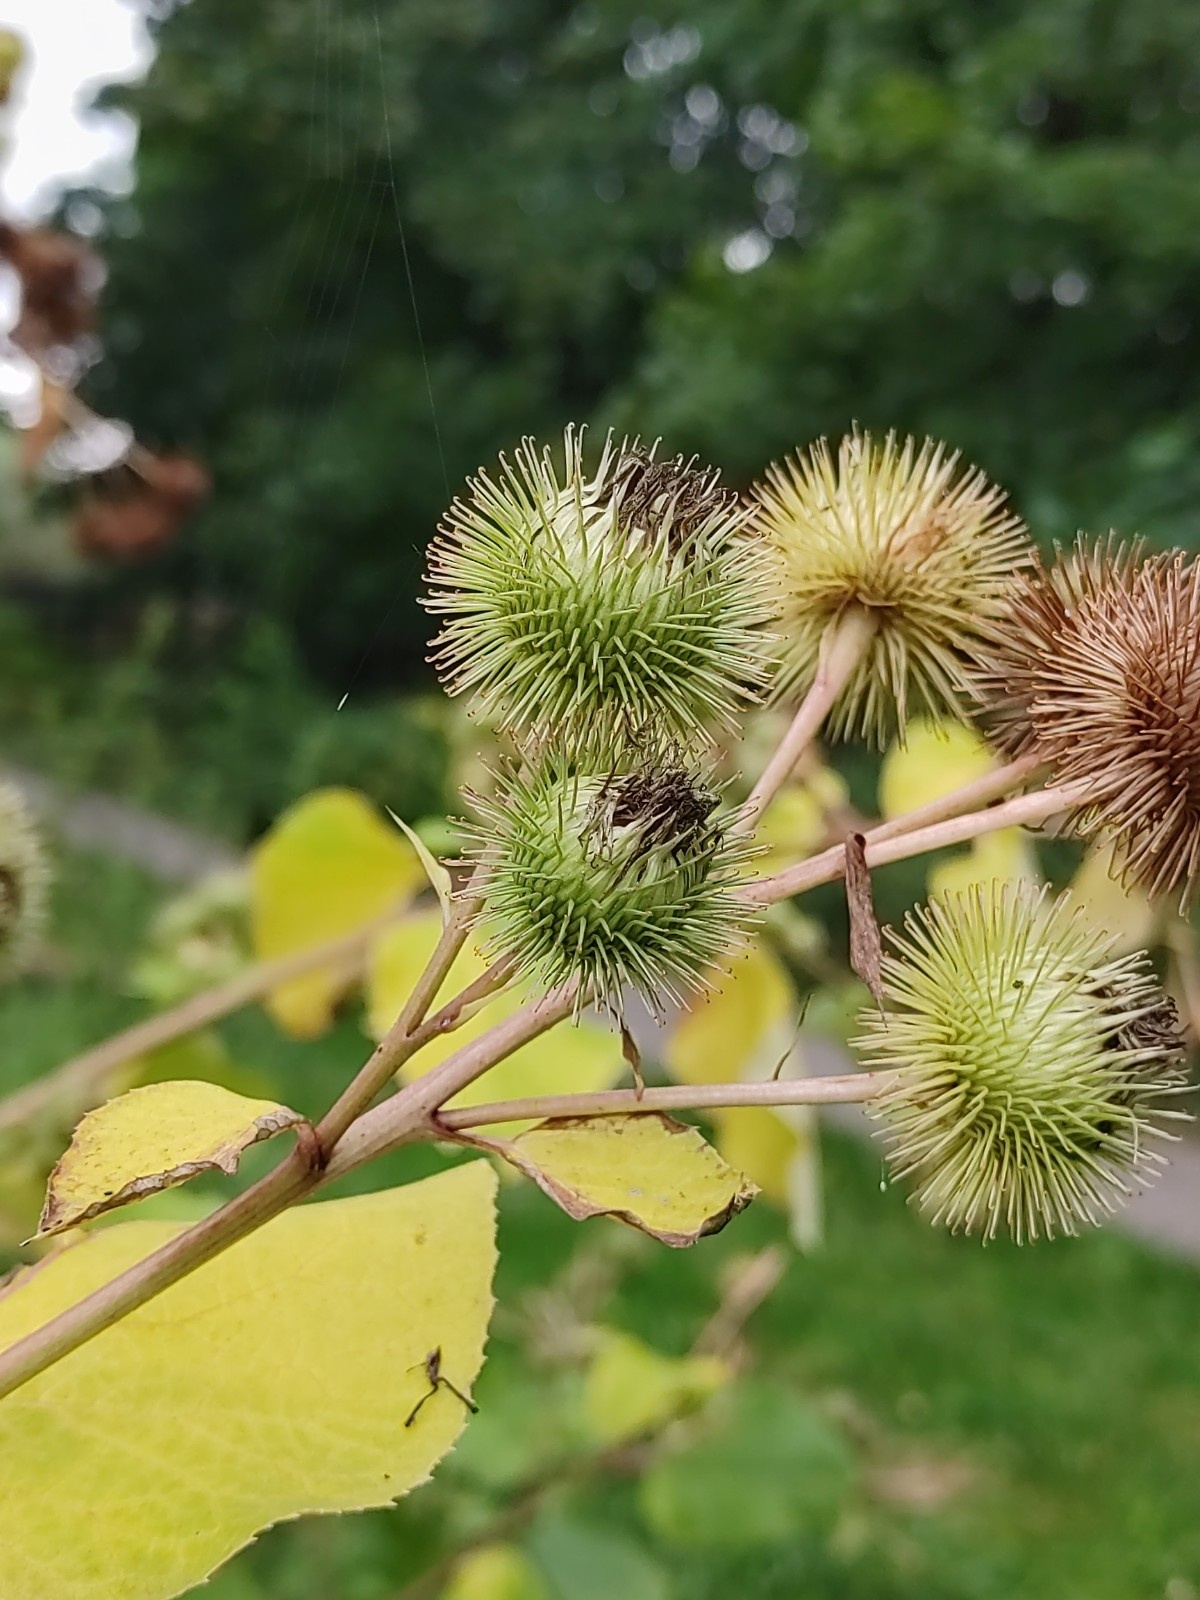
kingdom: Plantae
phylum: Tracheophyta
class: Magnoliopsida
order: Asterales
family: Asteraceae
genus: Arctium
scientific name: Arctium lappa
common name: Greater burdock
